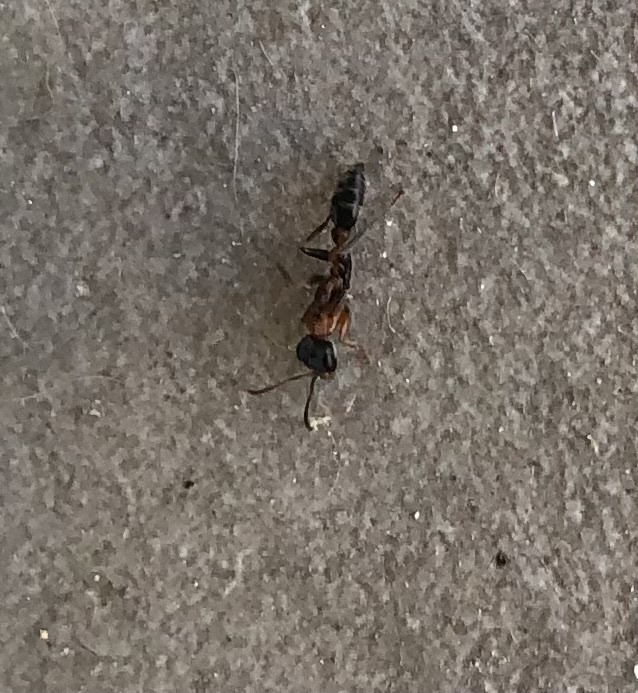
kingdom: Animalia
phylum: Arthropoda
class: Insecta
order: Hymenoptera
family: Formicidae
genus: Pseudomyrmex
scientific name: Pseudomyrmex gracilis
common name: Graceful twig ant
